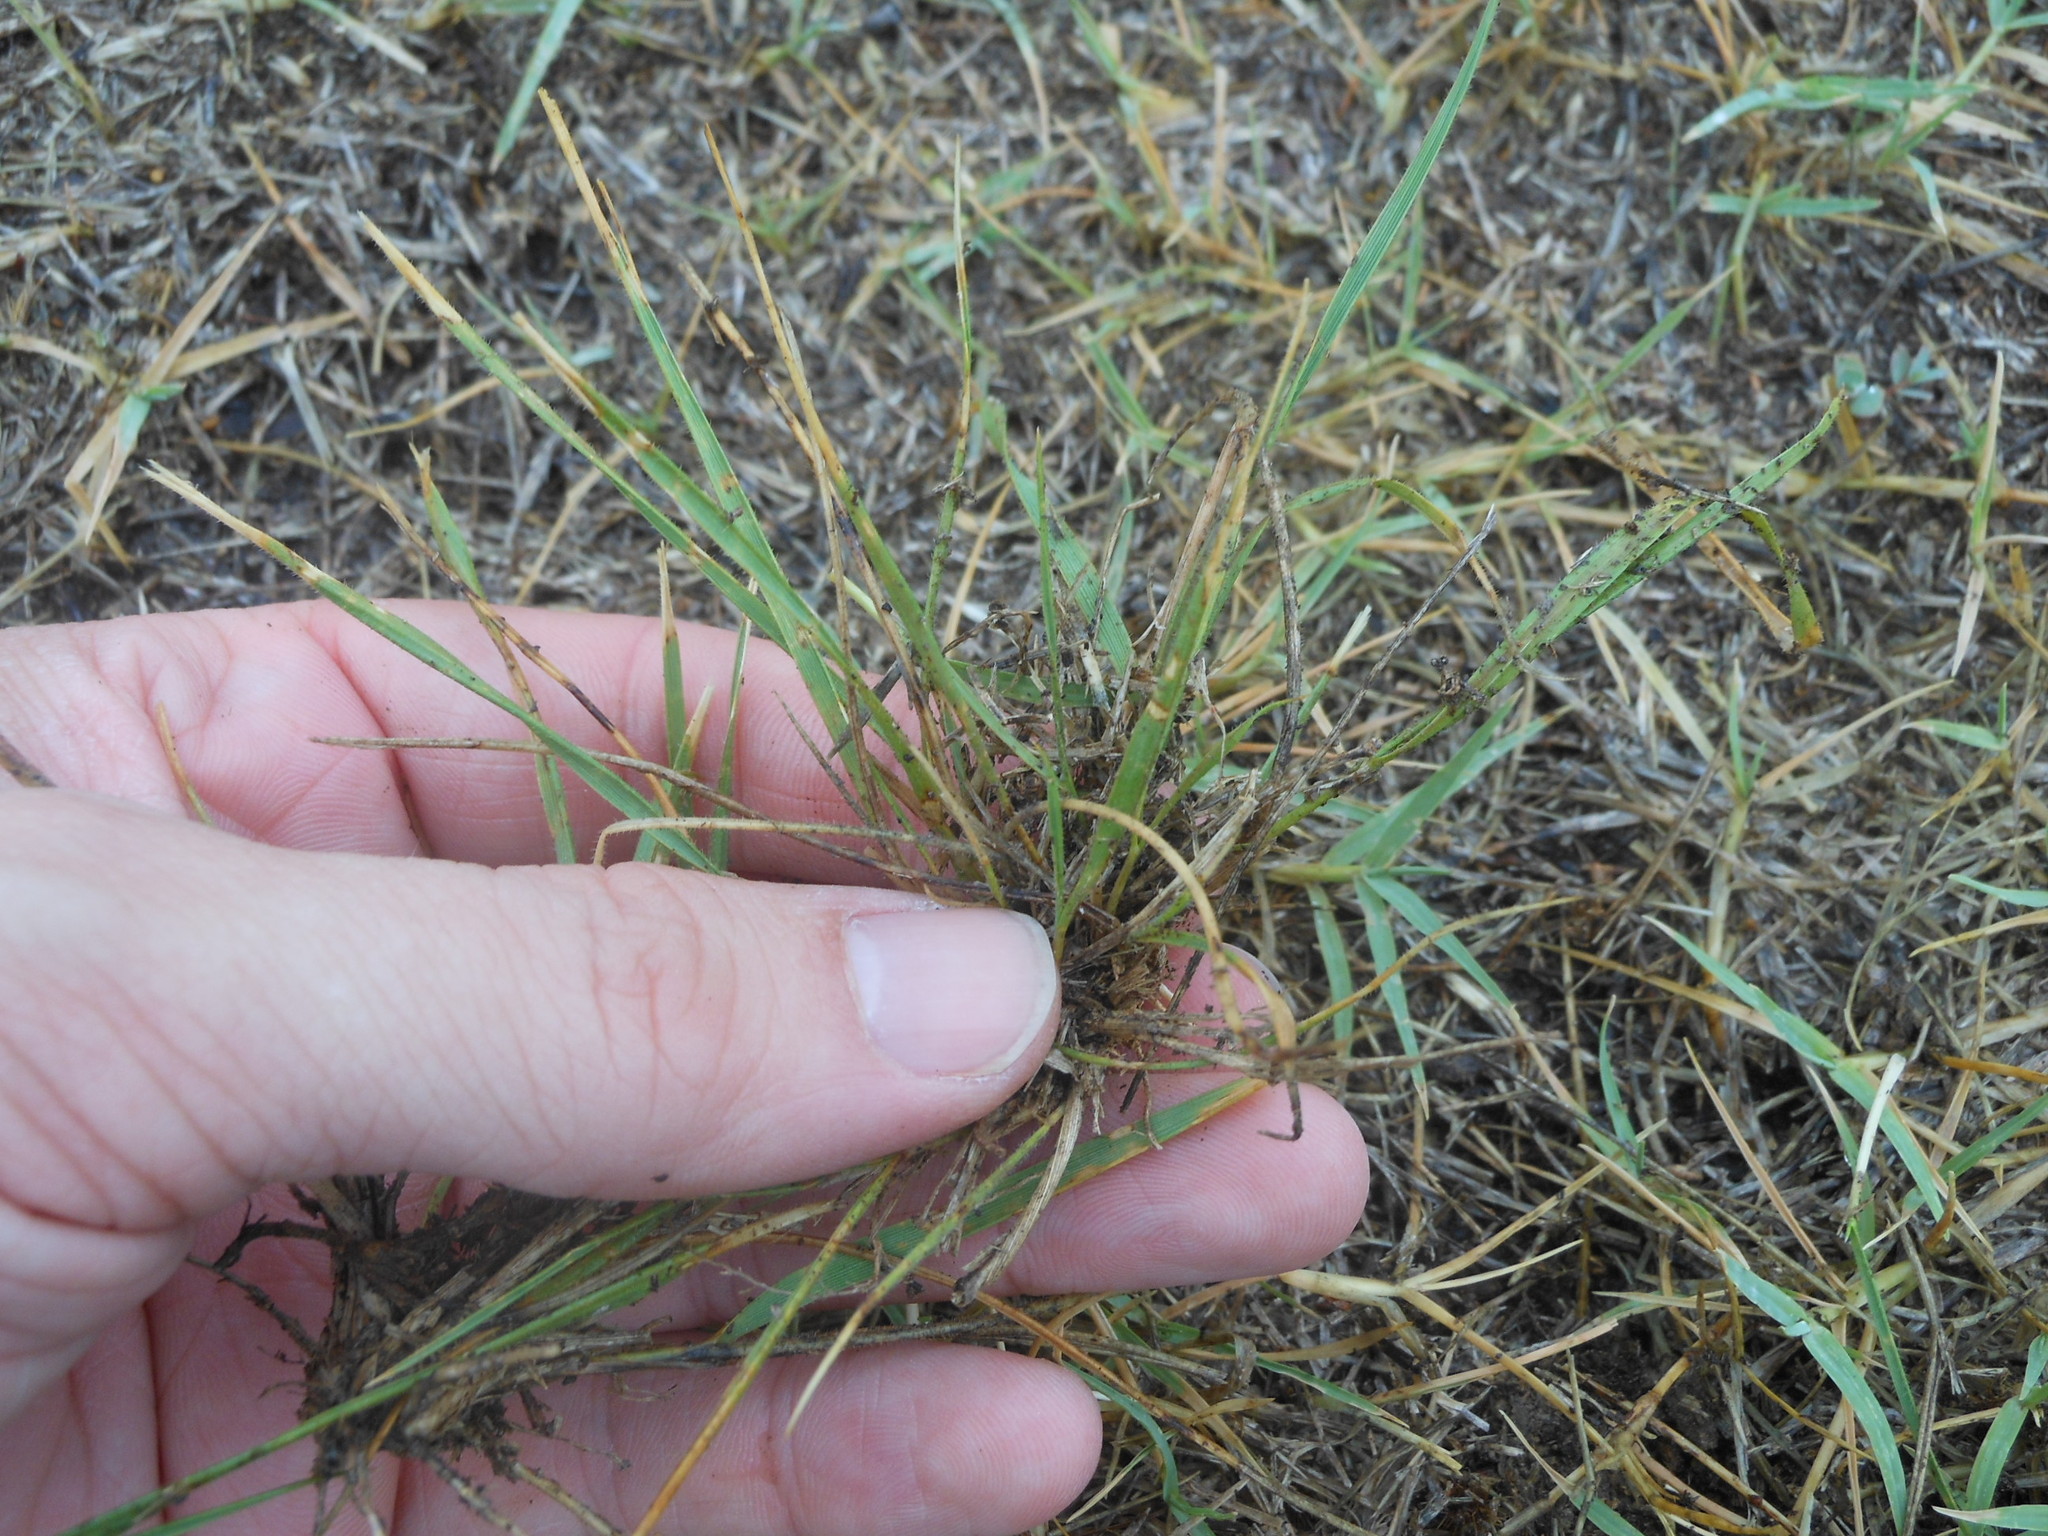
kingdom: Plantae
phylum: Tracheophyta
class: Magnoliopsida
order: Fabales
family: Fabaceae
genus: Medicago
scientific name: Medicago lupulina
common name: Black medick
